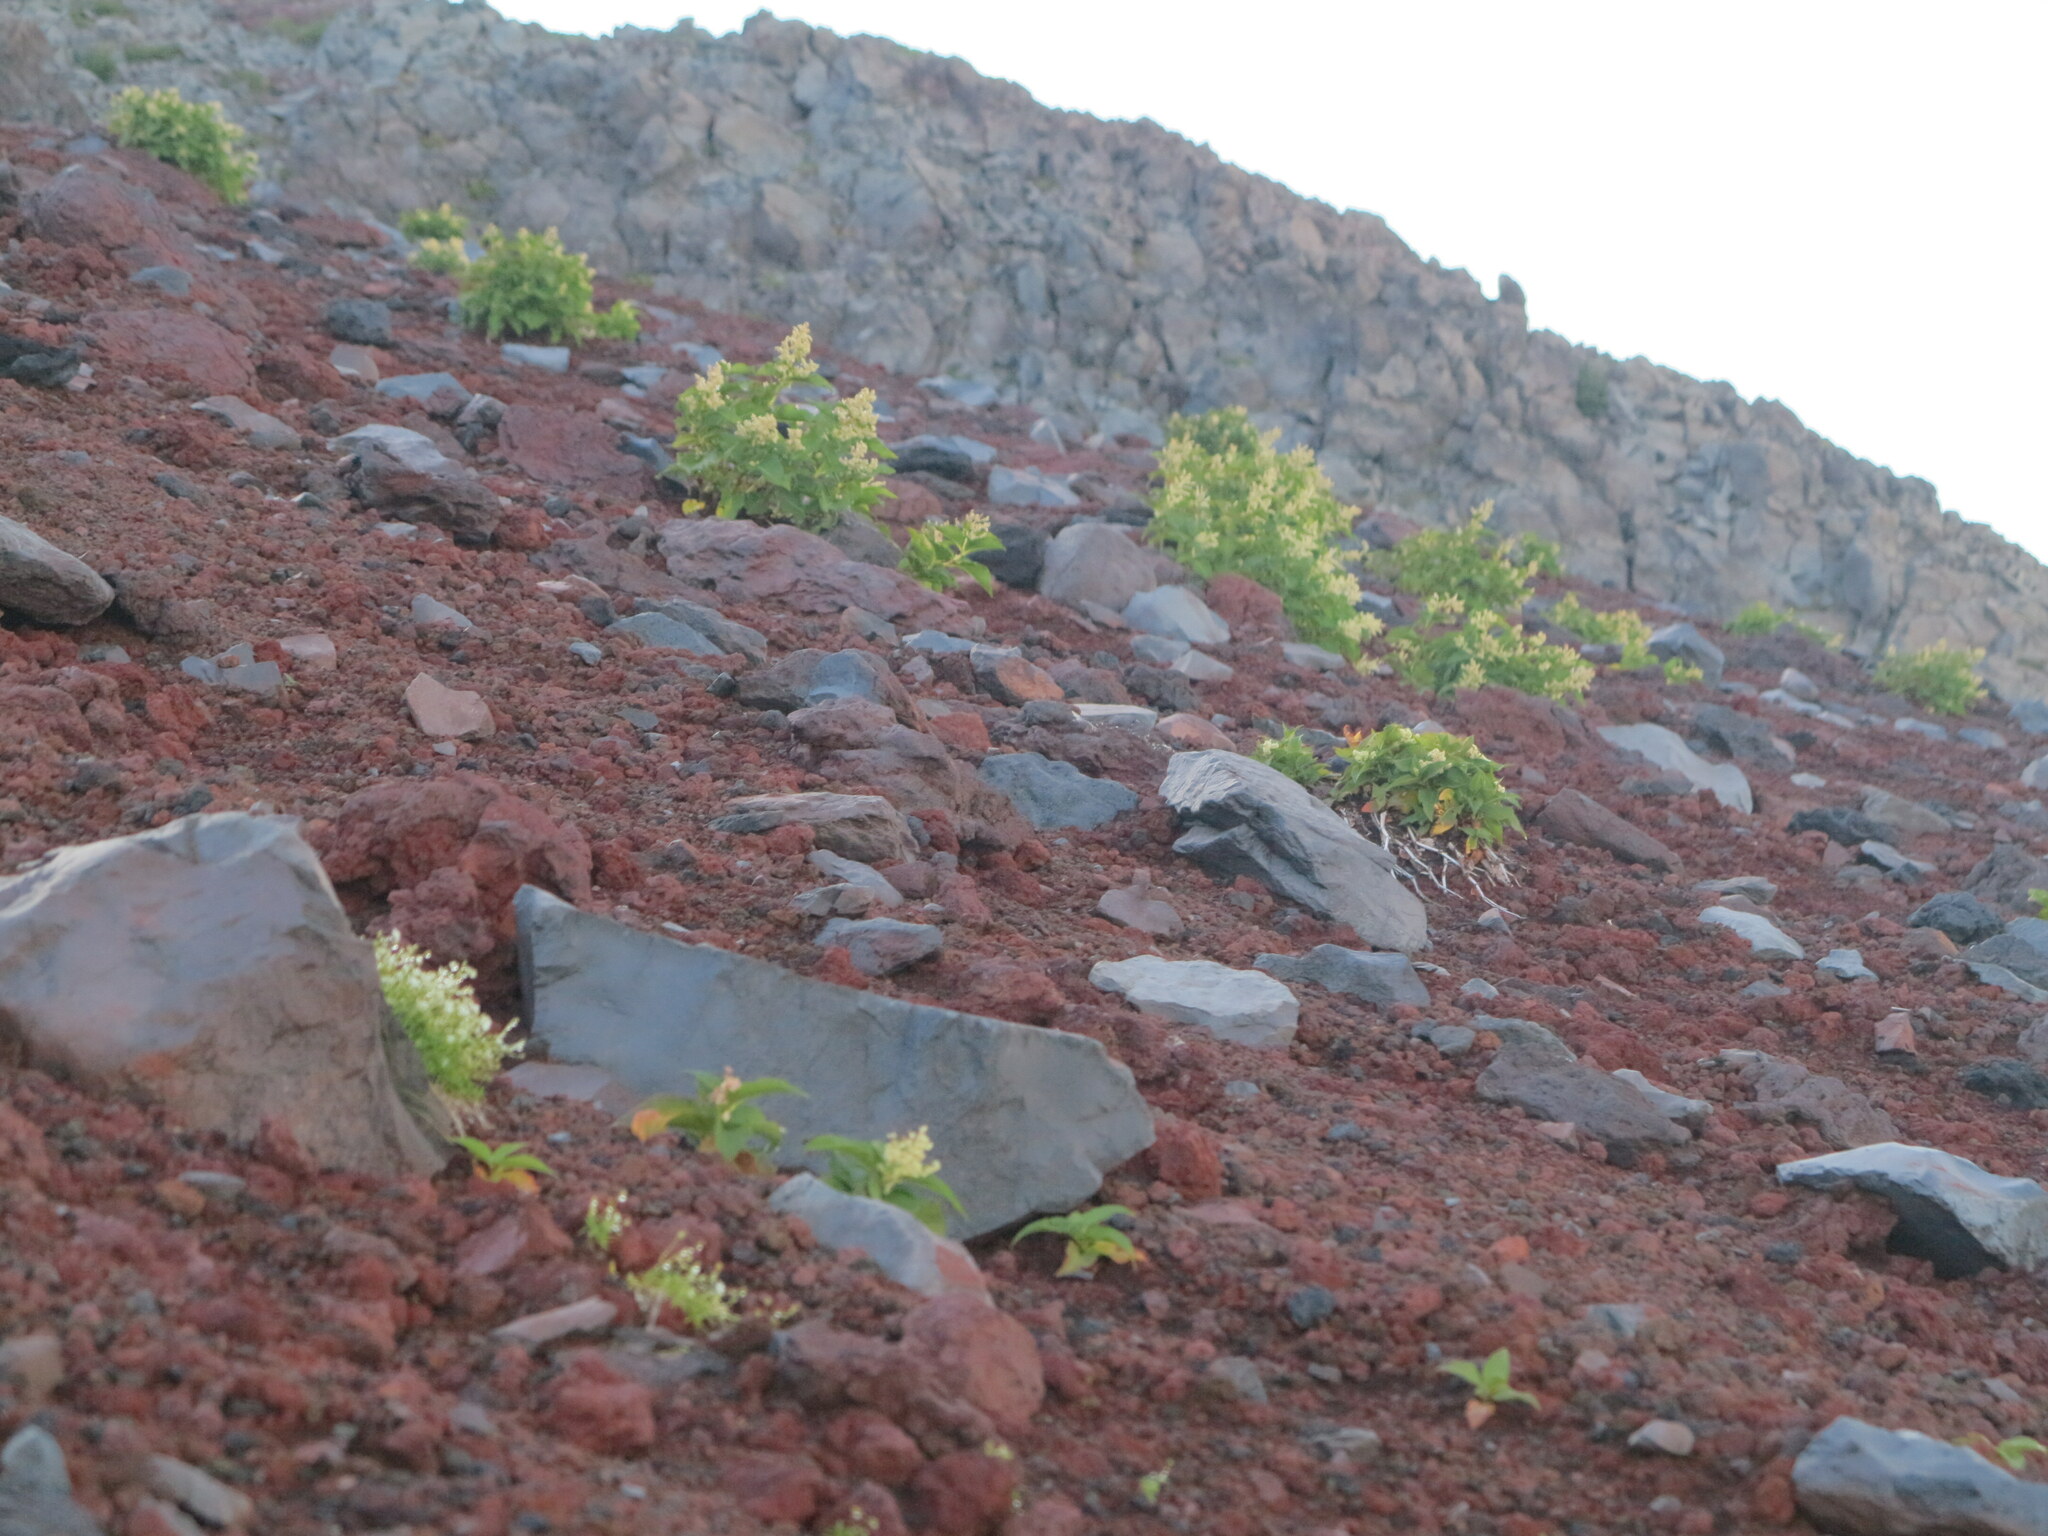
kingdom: Plantae
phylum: Tracheophyta
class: Magnoliopsida
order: Caryophyllales
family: Polygonaceae
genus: Koenigia
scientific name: Koenigia weyrichii
